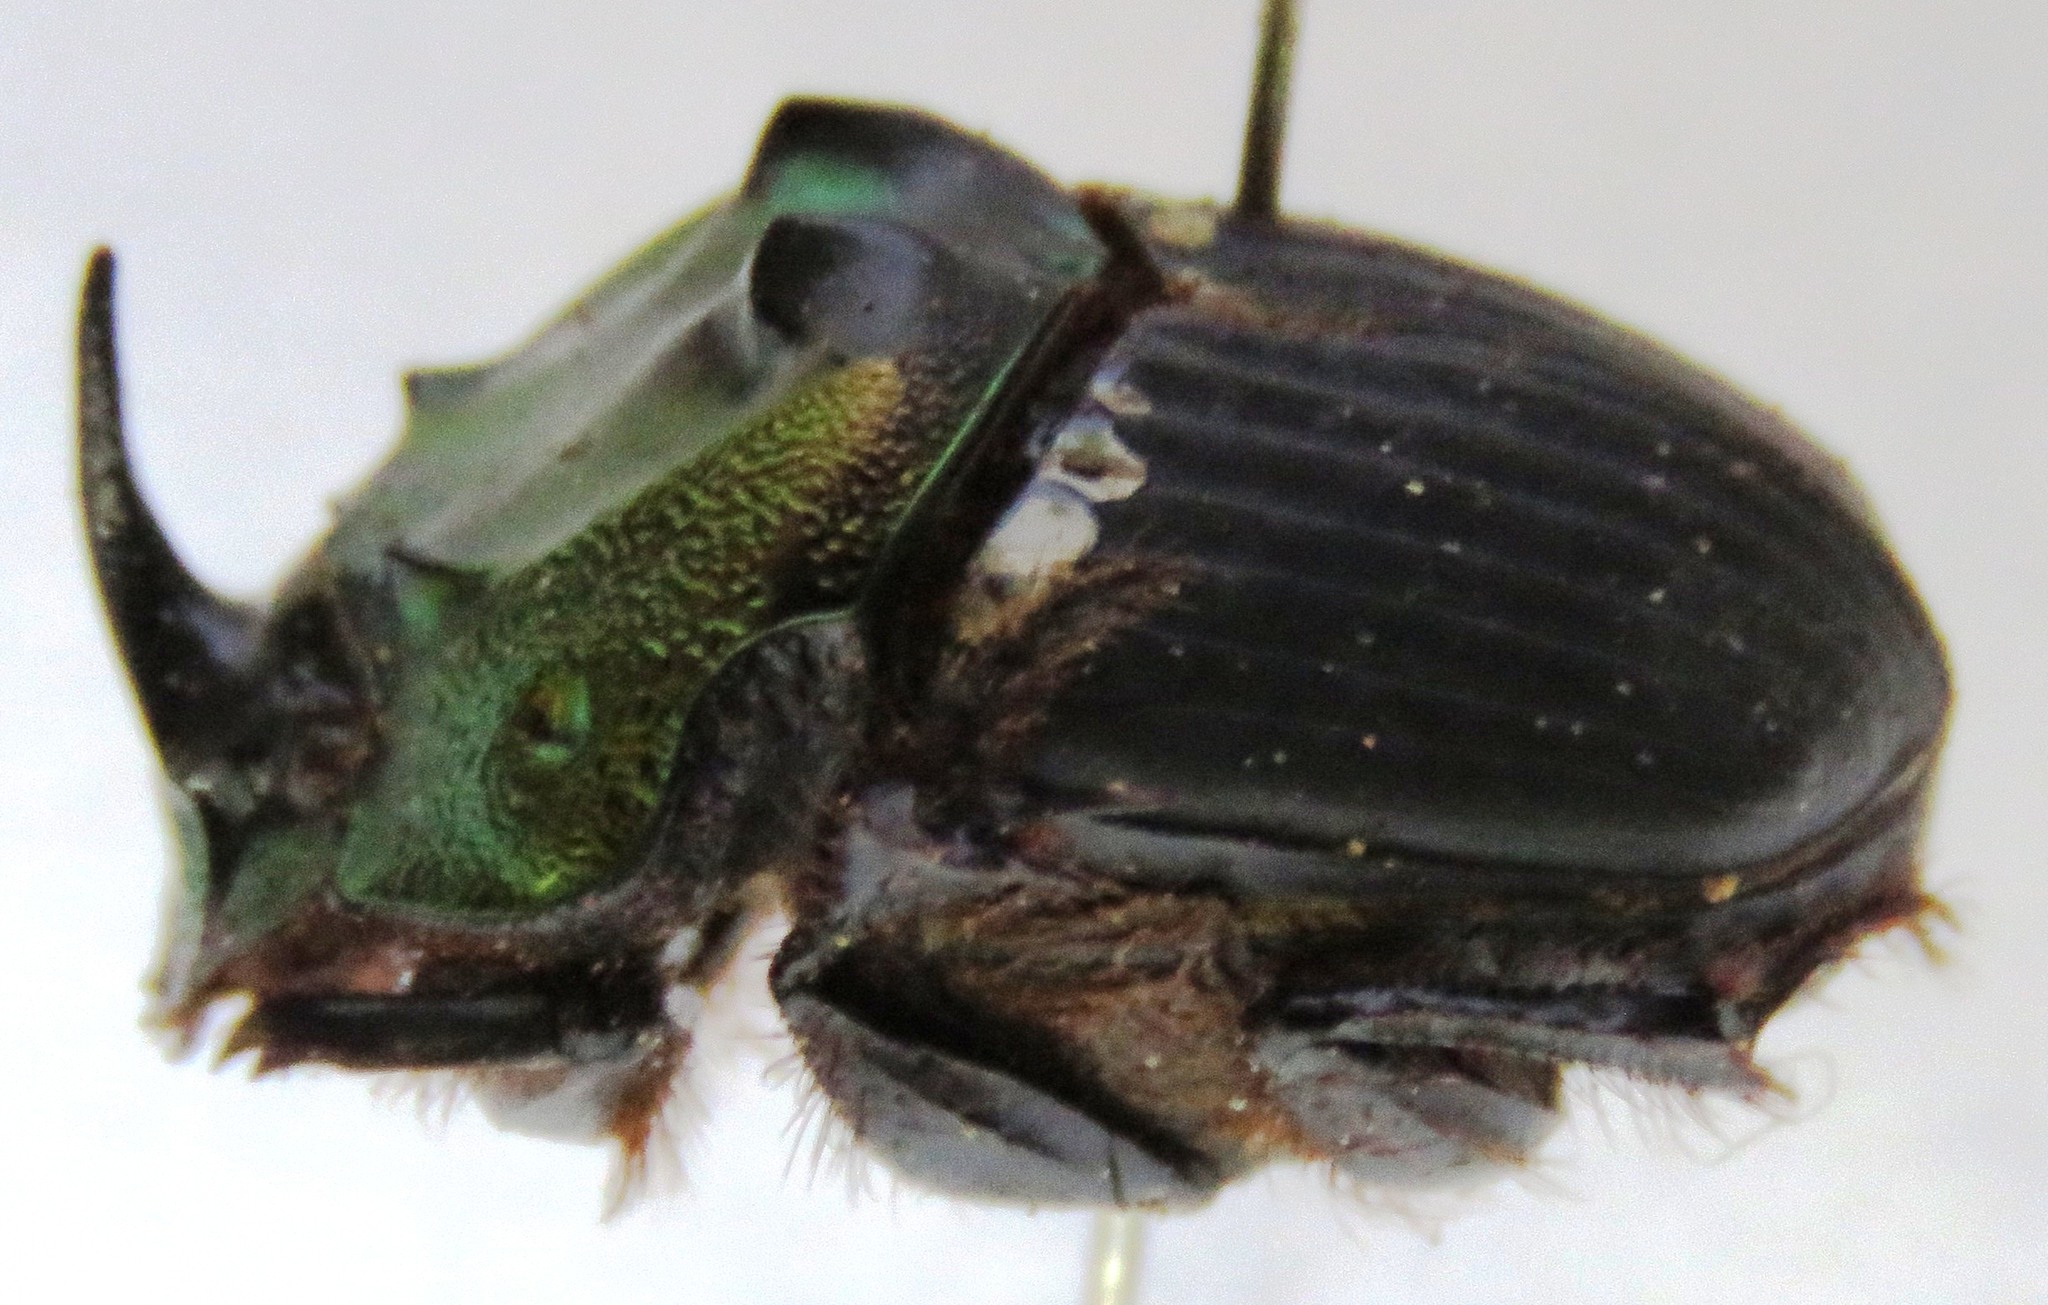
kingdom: Animalia
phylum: Arthropoda
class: Insecta
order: Coleoptera
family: Scarabaeidae
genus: Sulcophanaeus
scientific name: Sulcophanaeus noctis
